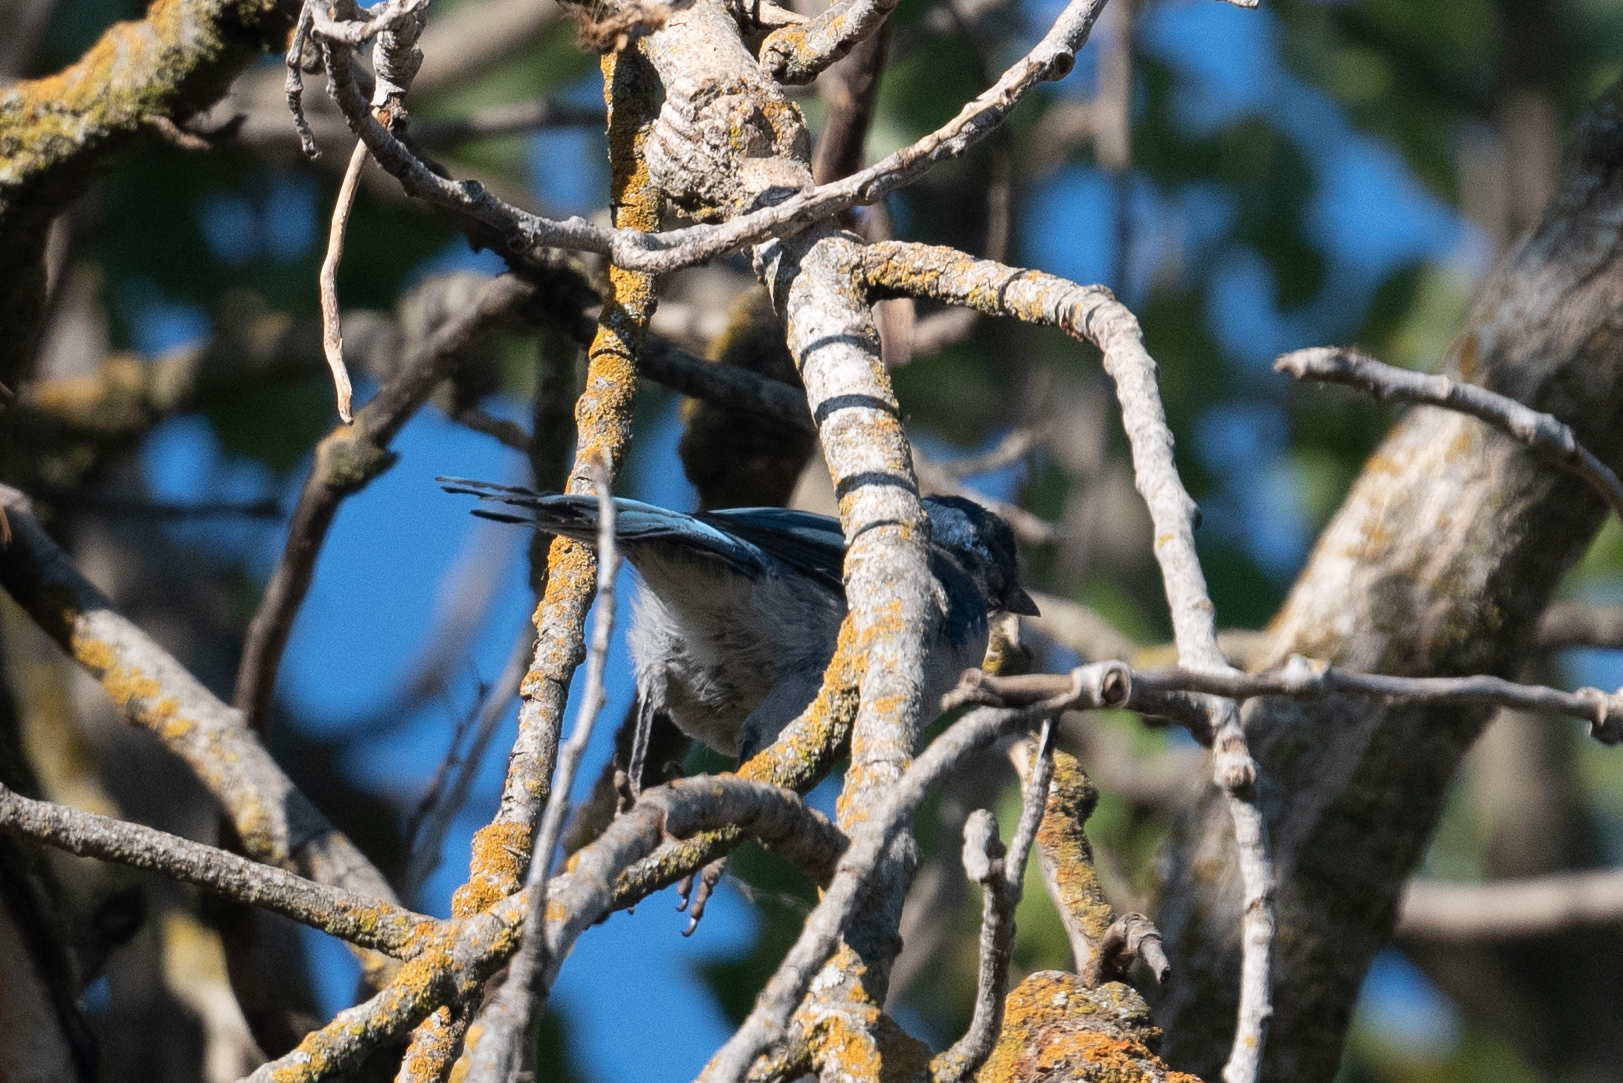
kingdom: Animalia
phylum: Chordata
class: Aves
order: Passeriformes
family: Corvidae
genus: Aphelocoma
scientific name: Aphelocoma californica
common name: California scrub-jay
